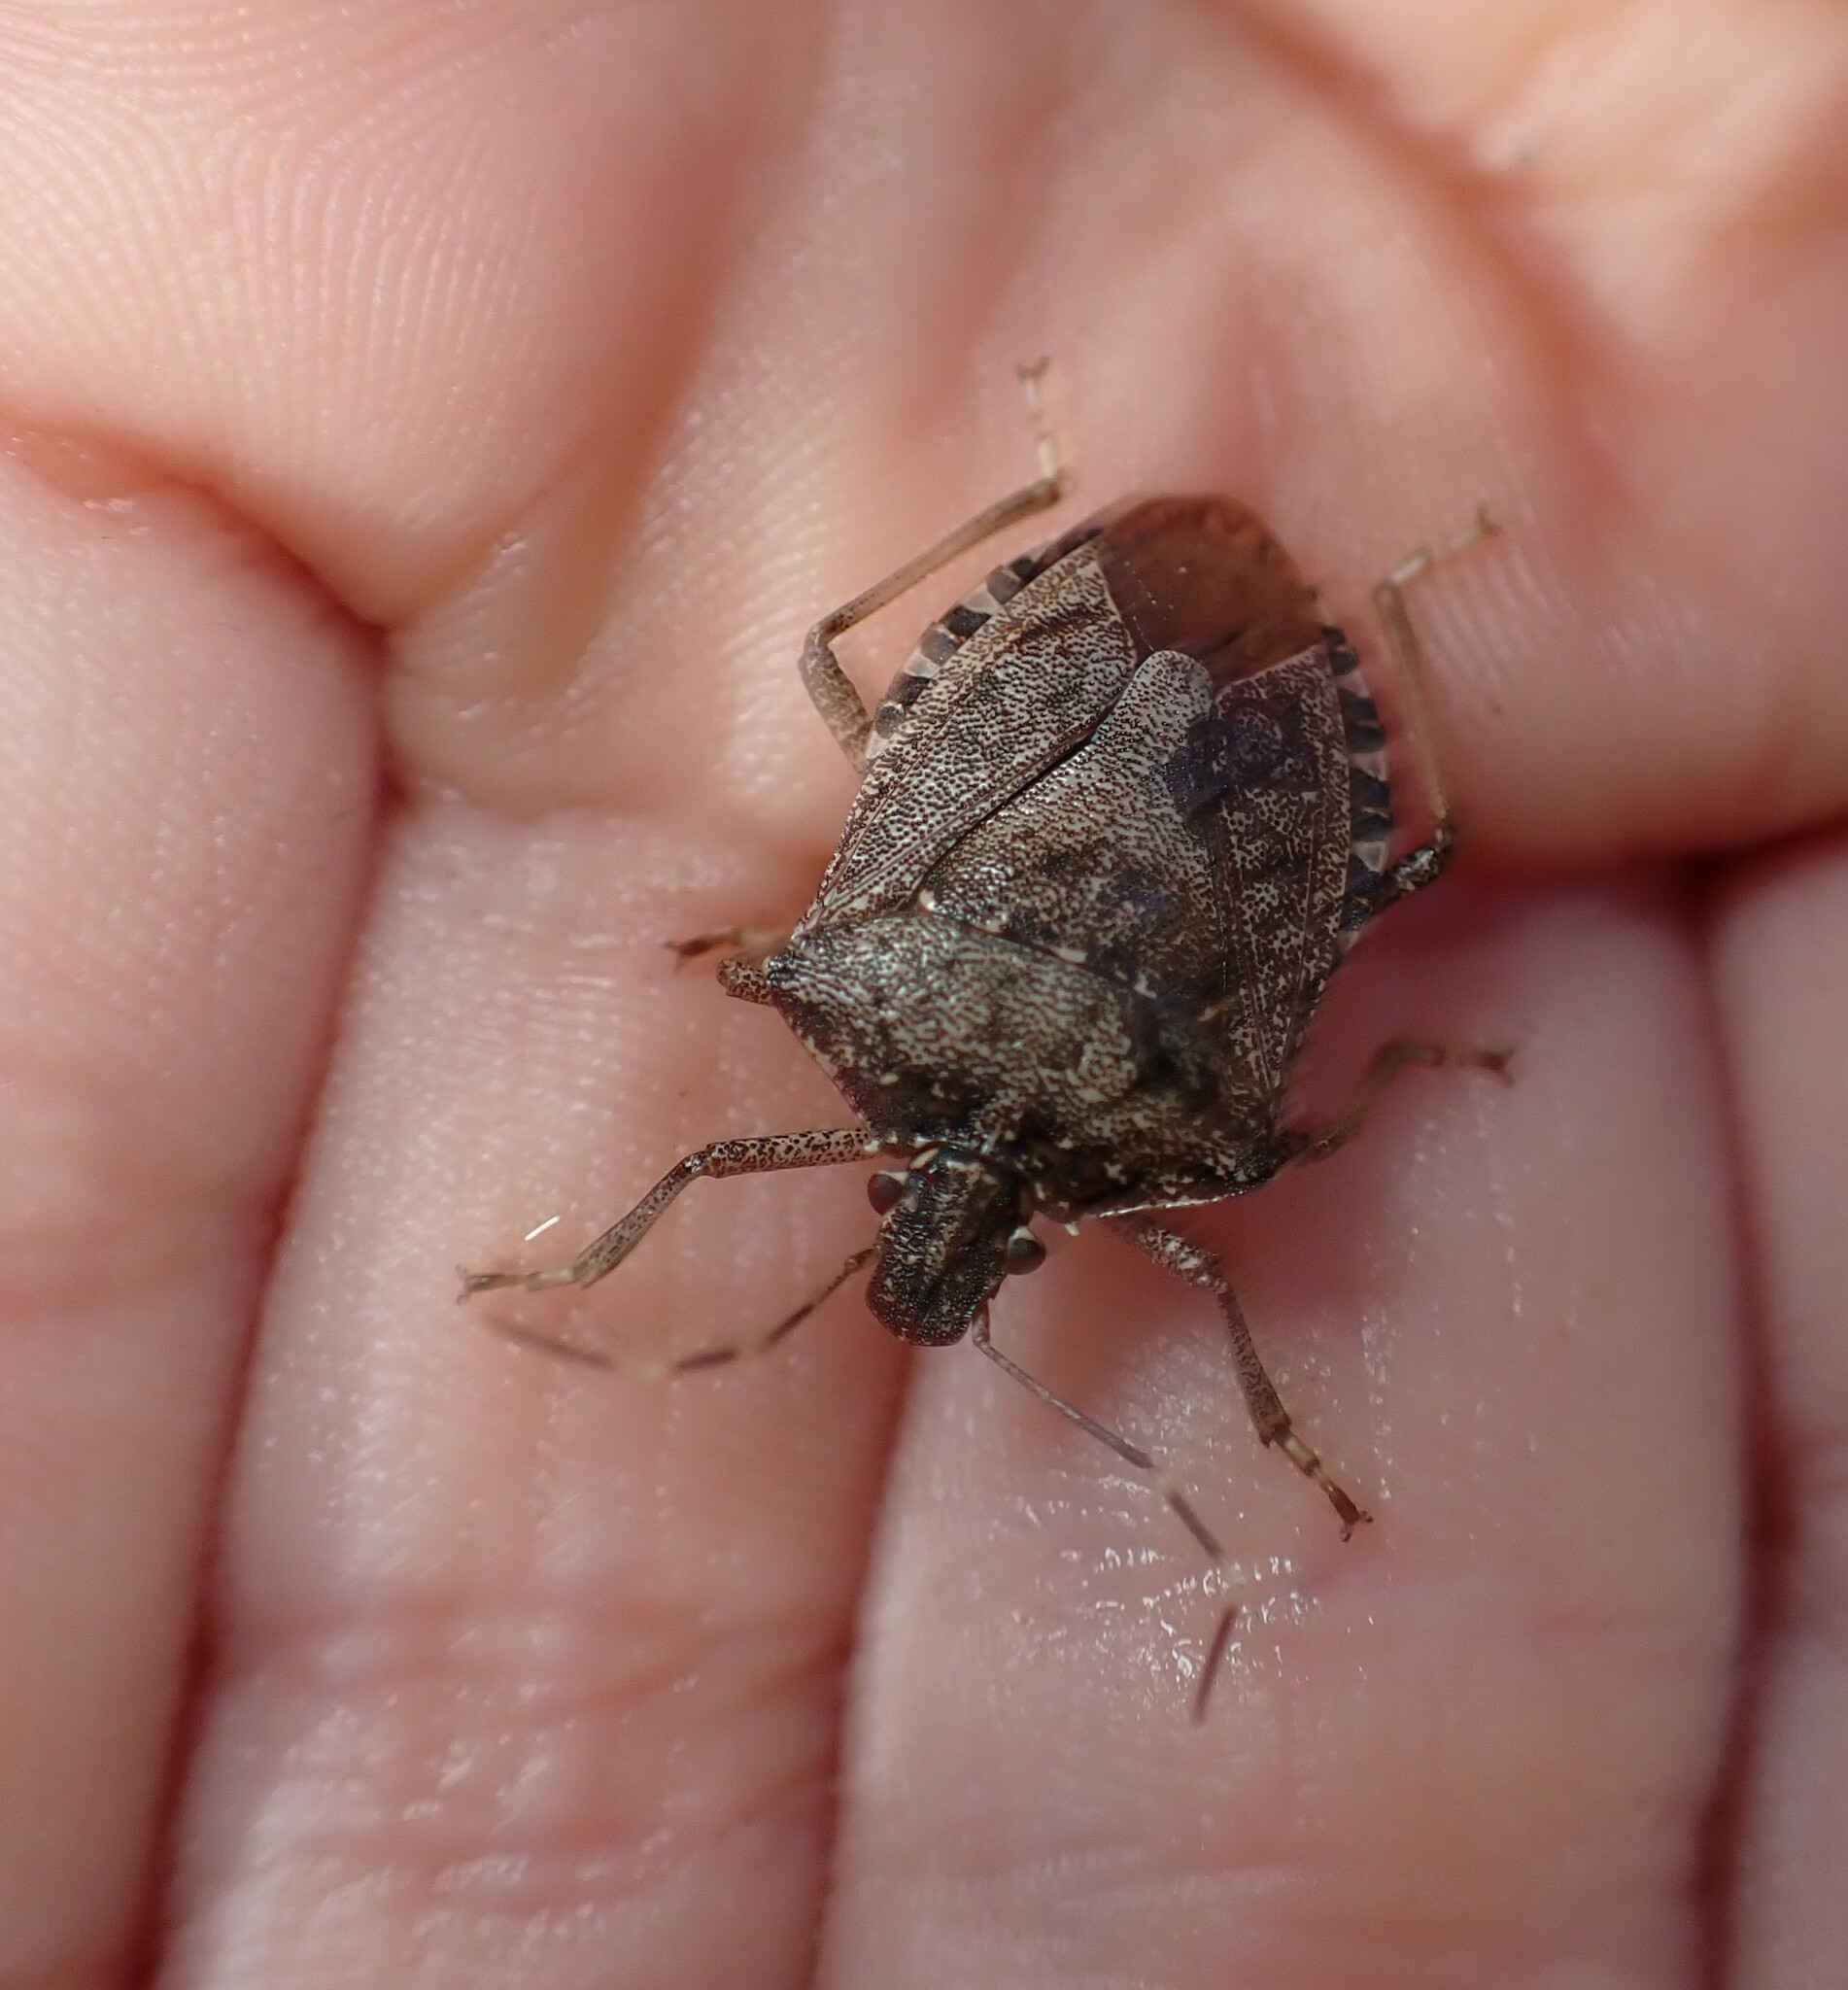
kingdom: Animalia
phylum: Arthropoda
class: Insecta
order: Hemiptera
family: Pentatomidae
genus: Halyomorpha
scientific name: Halyomorpha halys
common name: Brown marmorated stink bug
